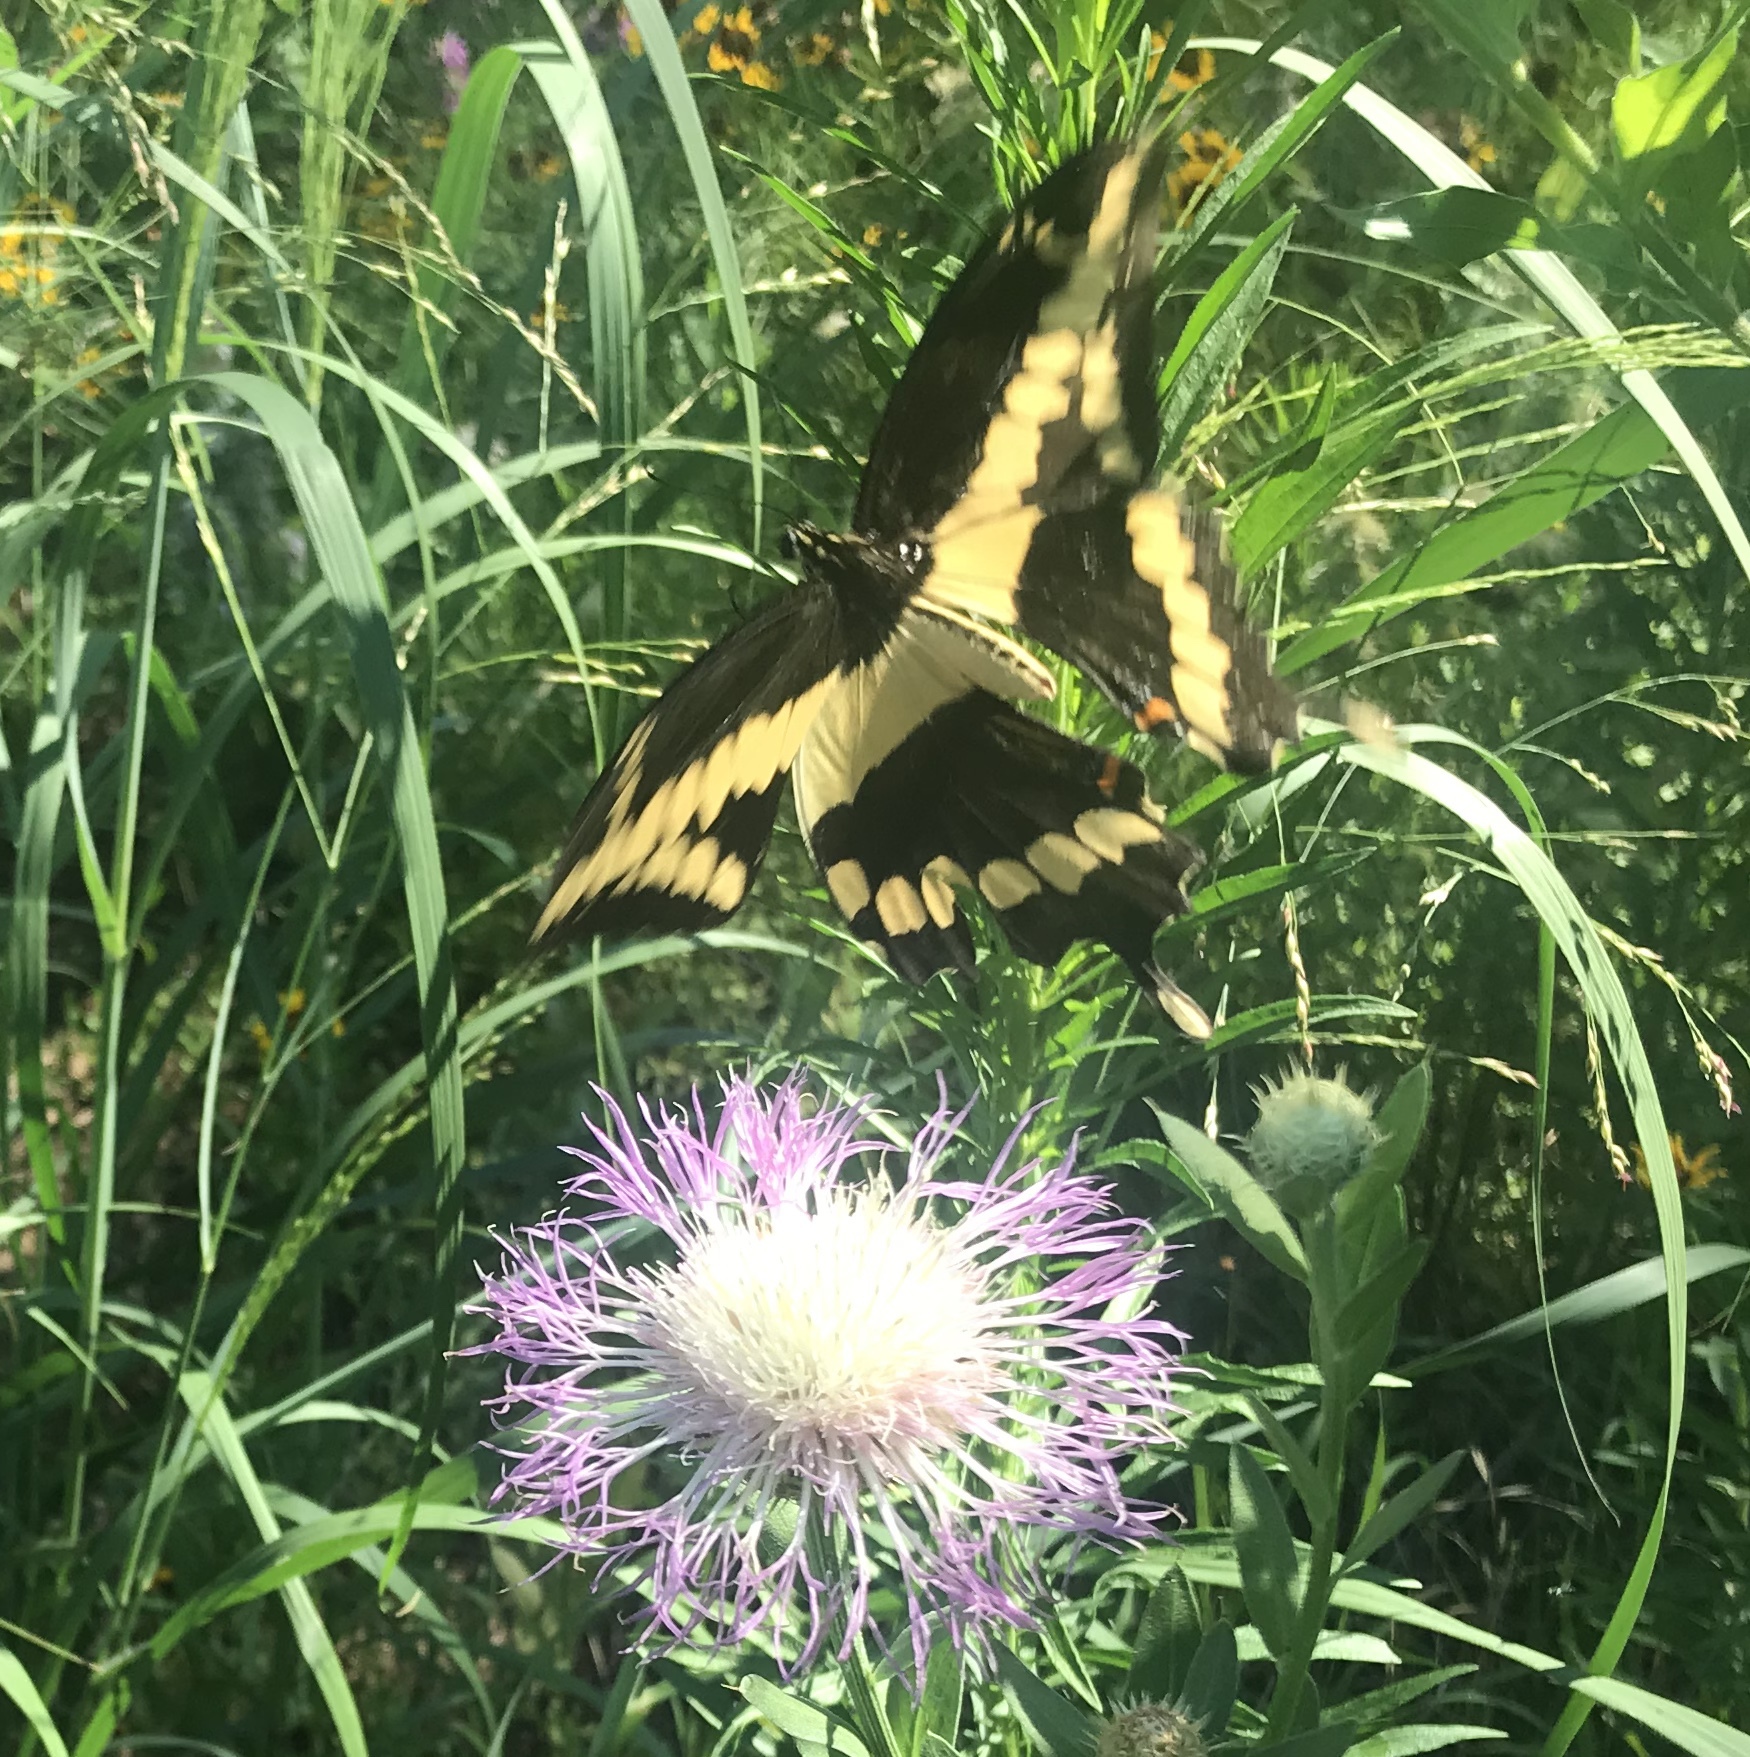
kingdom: Animalia
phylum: Arthropoda
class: Insecta
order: Lepidoptera
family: Papilionidae
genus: Papilio
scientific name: Papilio cresphontes
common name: Giant swallowtail
